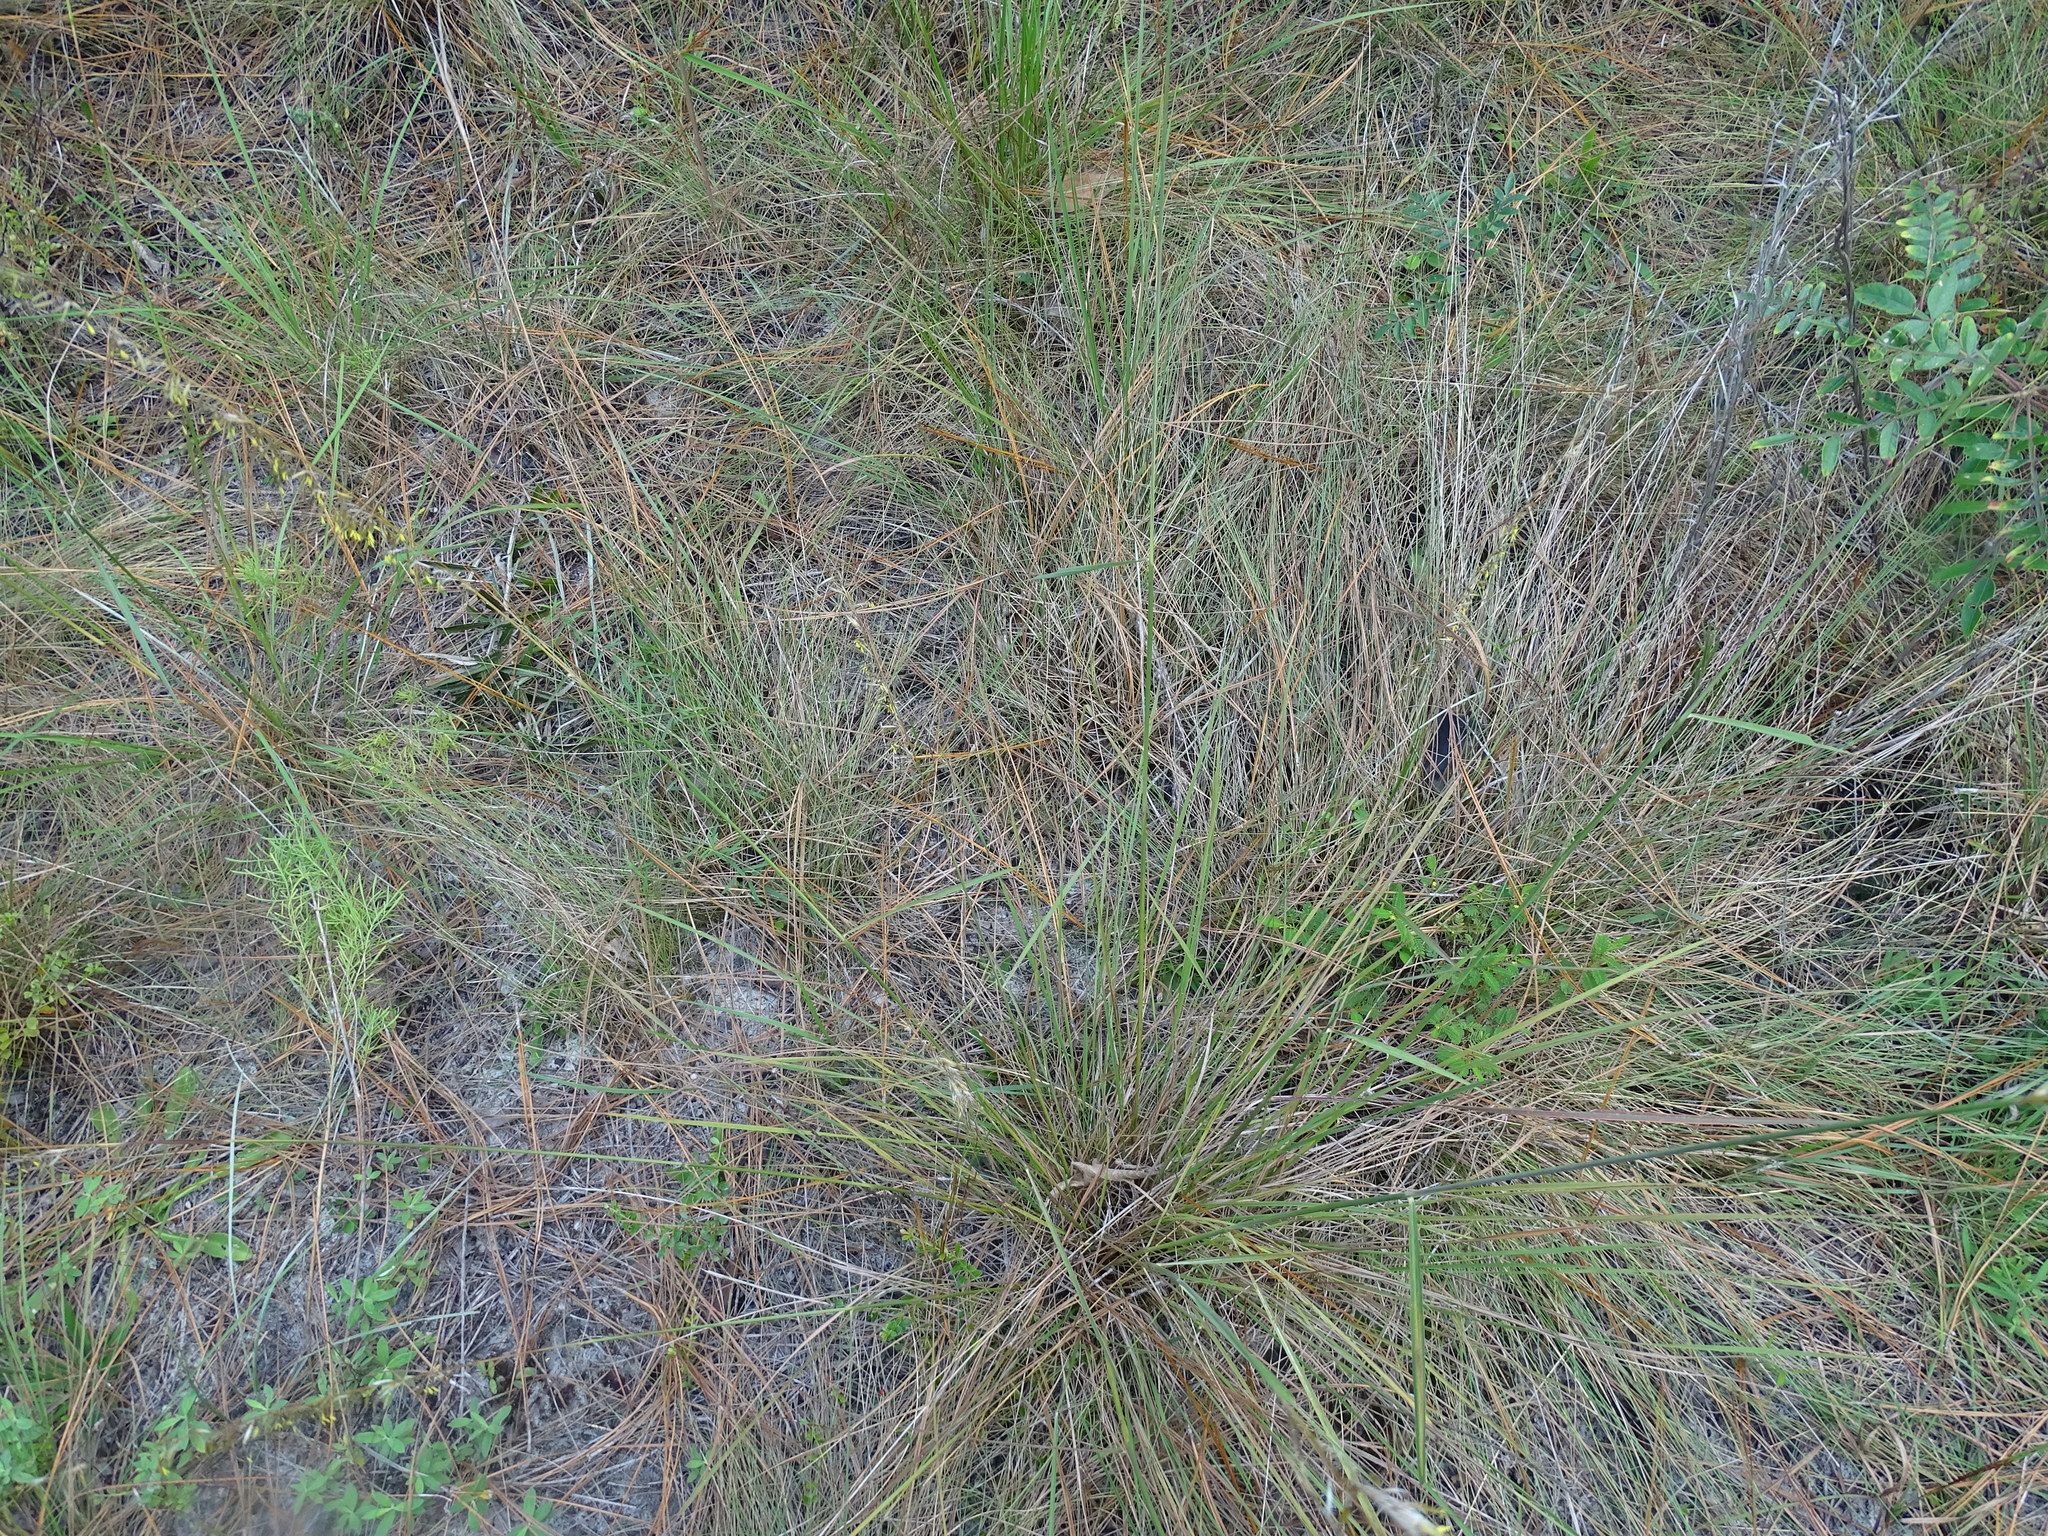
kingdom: Plantae
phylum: Tracheophyta
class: Liliopsida
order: Poales
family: Poaceae
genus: Sorghastrum
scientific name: Sorghastrum secundum
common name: Lopsided indian grass
